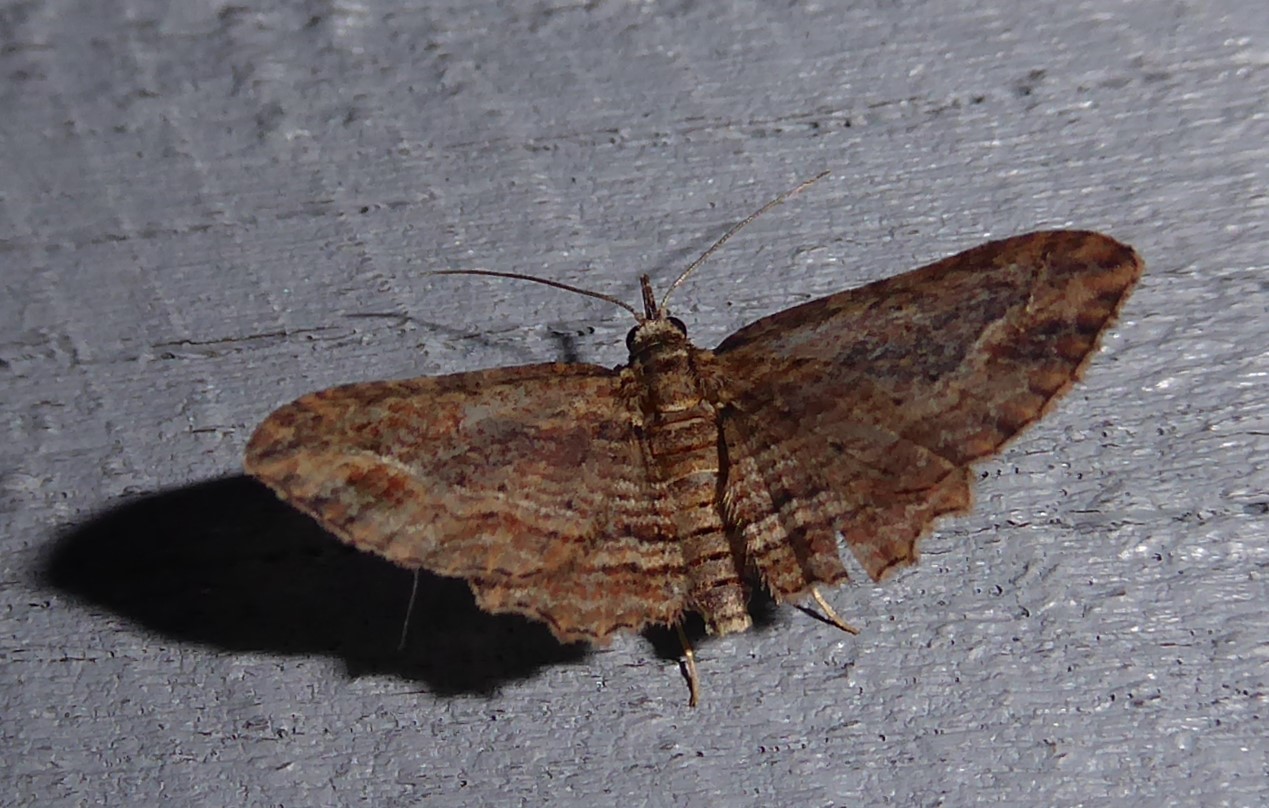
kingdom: Animalia
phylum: Arthropoda
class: Insecta
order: Lepidoptera
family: Geometridae
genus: Chloroclystis
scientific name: Chloroclystis filata
